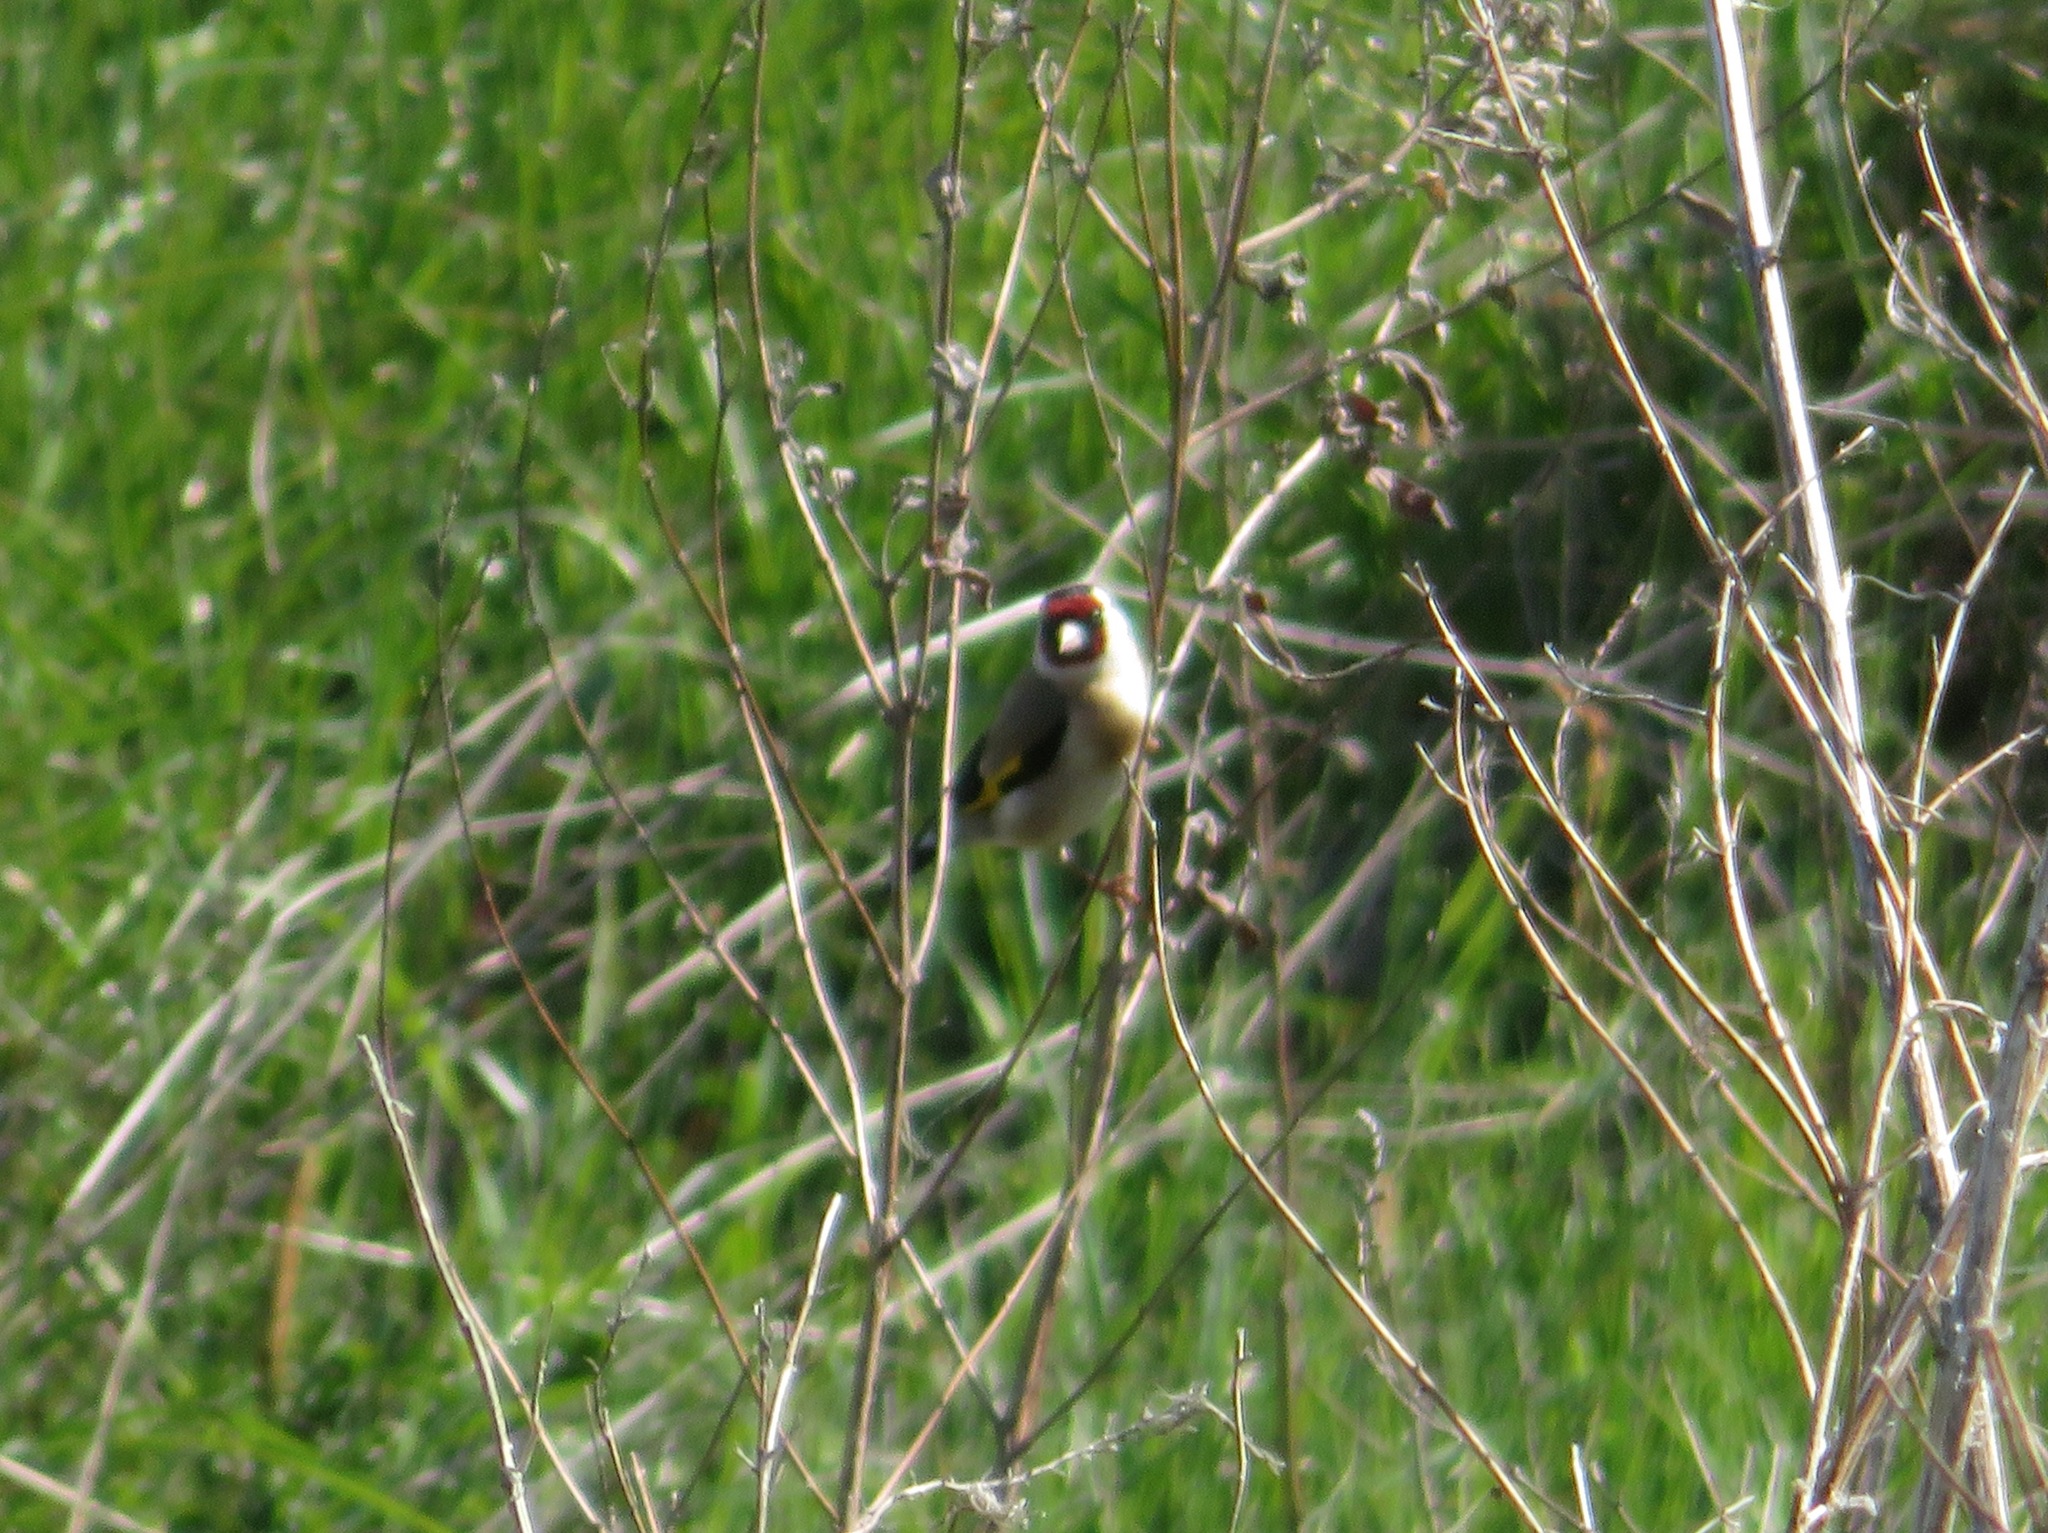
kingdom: Animalia
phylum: Chordata
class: Aves
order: Passeriformes
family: Fringillidae
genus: Carduelis
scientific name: Carduelis carduelis
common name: European goldfinch
